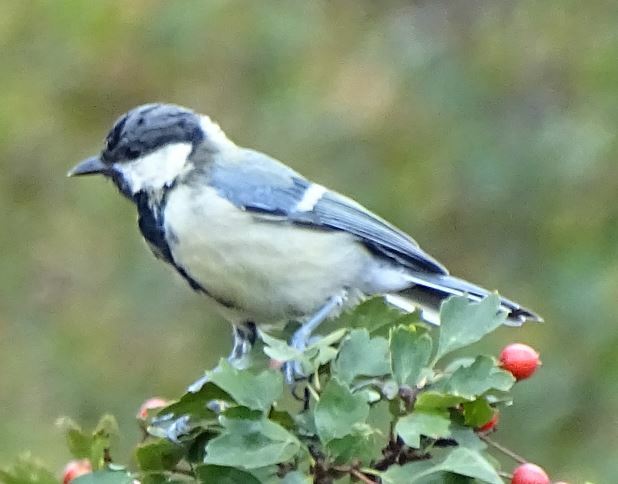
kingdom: Animalia
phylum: Chordata
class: Aves
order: Passeriformes
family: Paridae
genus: Parus
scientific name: Parus major
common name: Great tit
